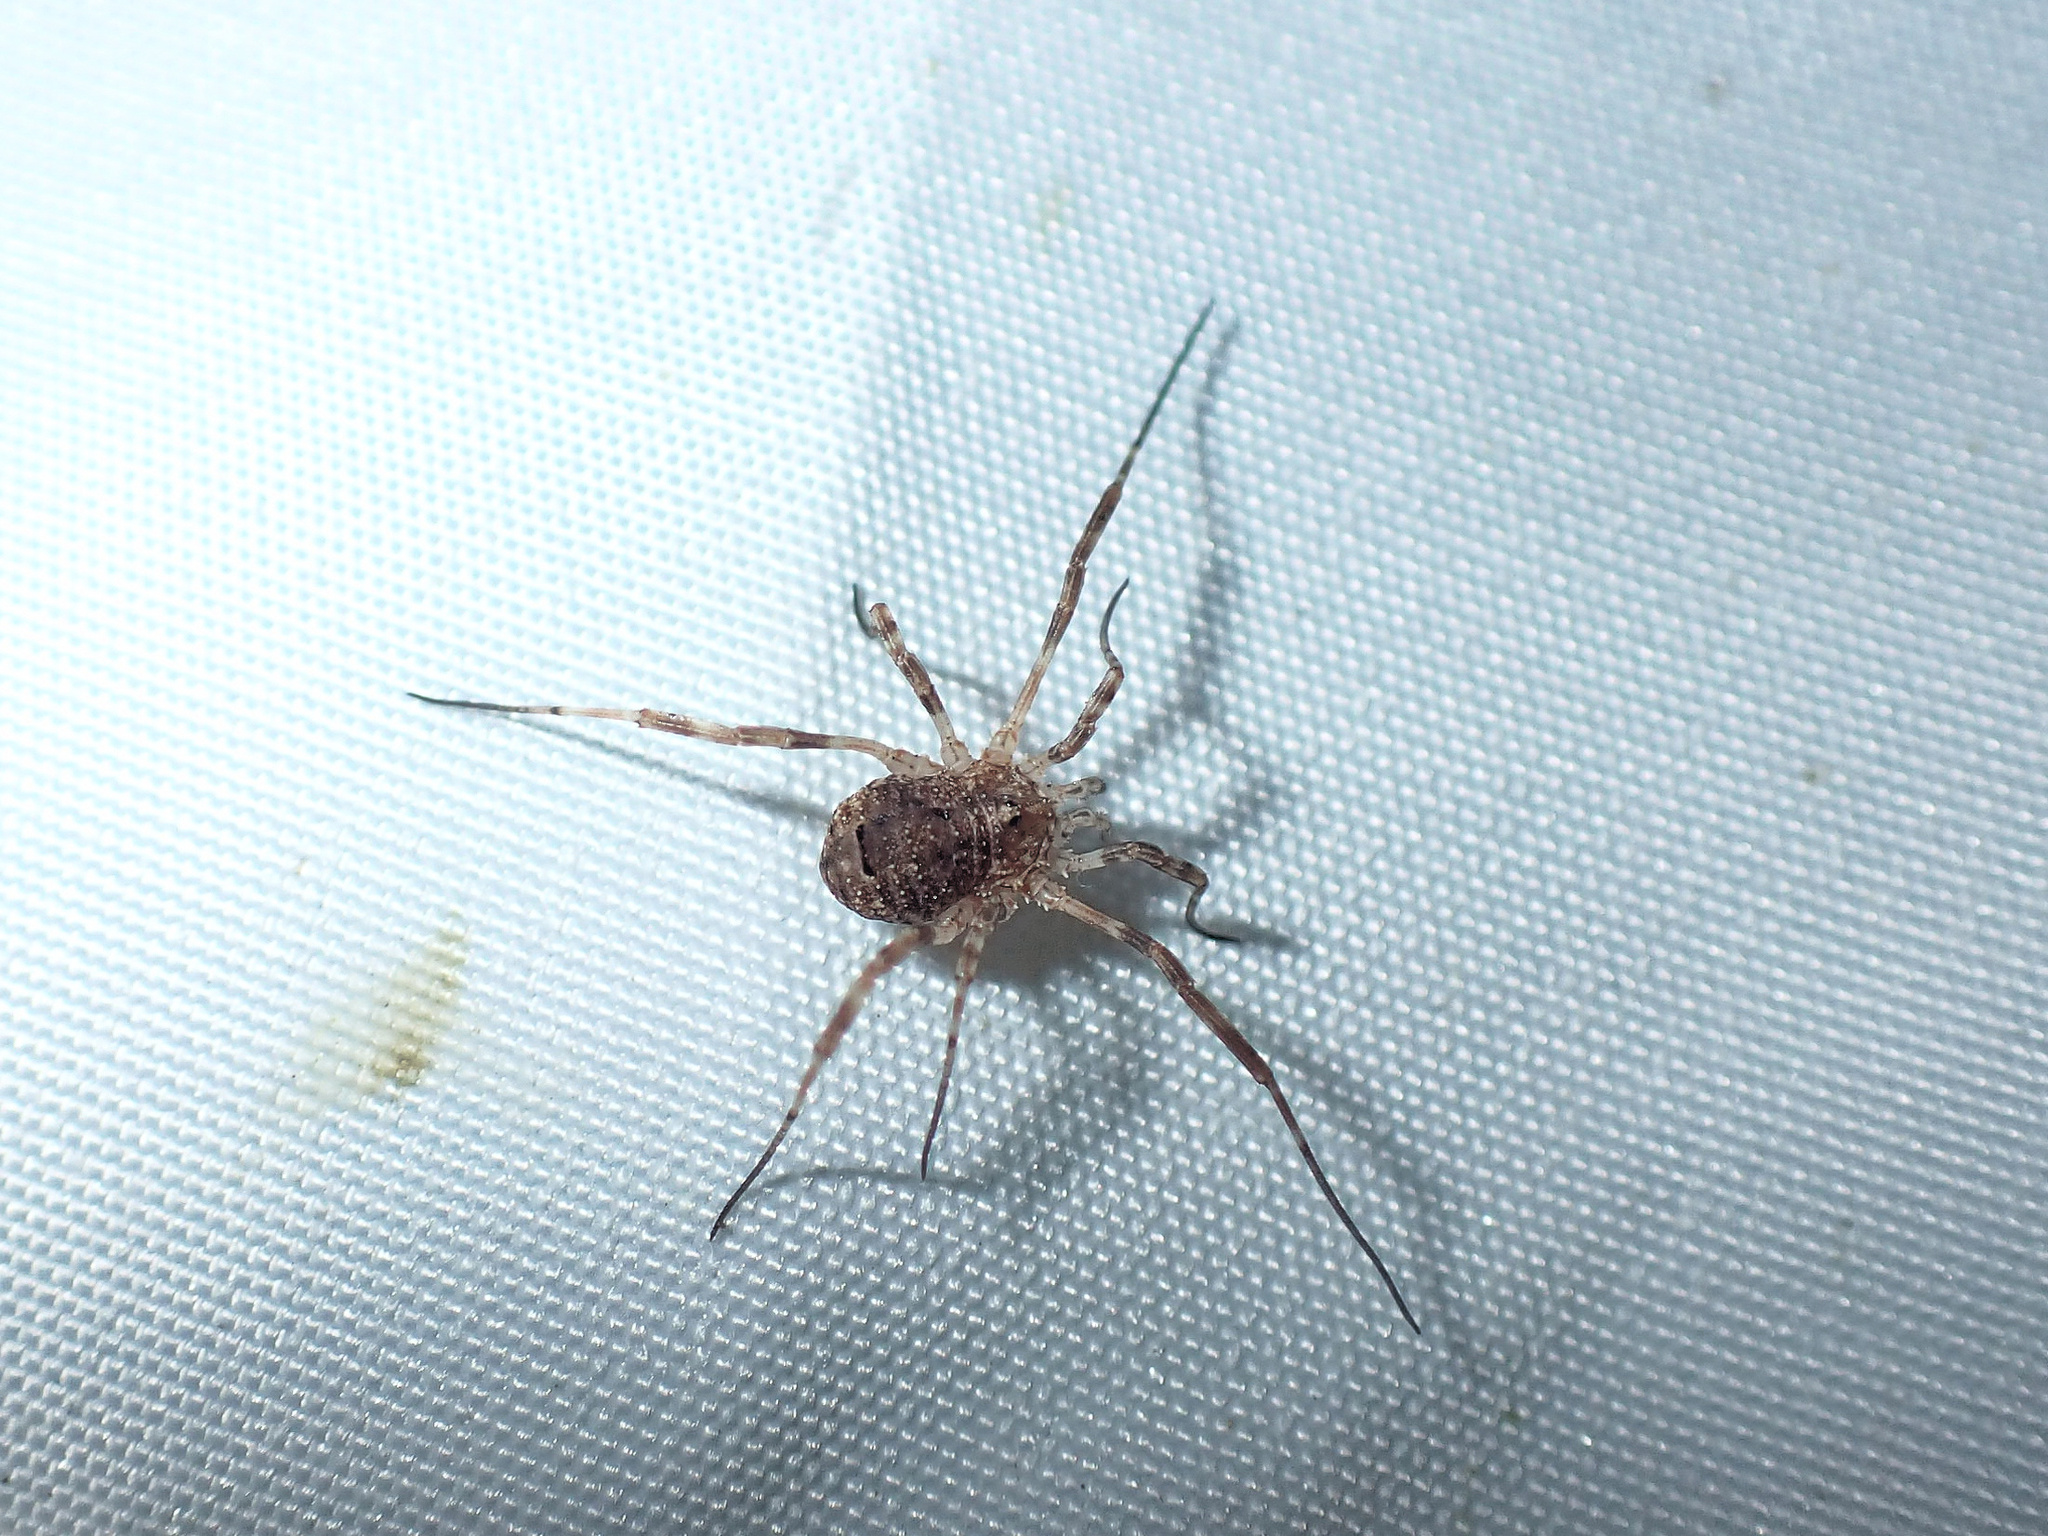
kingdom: Animalia
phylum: Arthropoda
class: Arachnida
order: Opiliones
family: Phalangiidae
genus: Odiellus
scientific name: Odiellus spinosus
